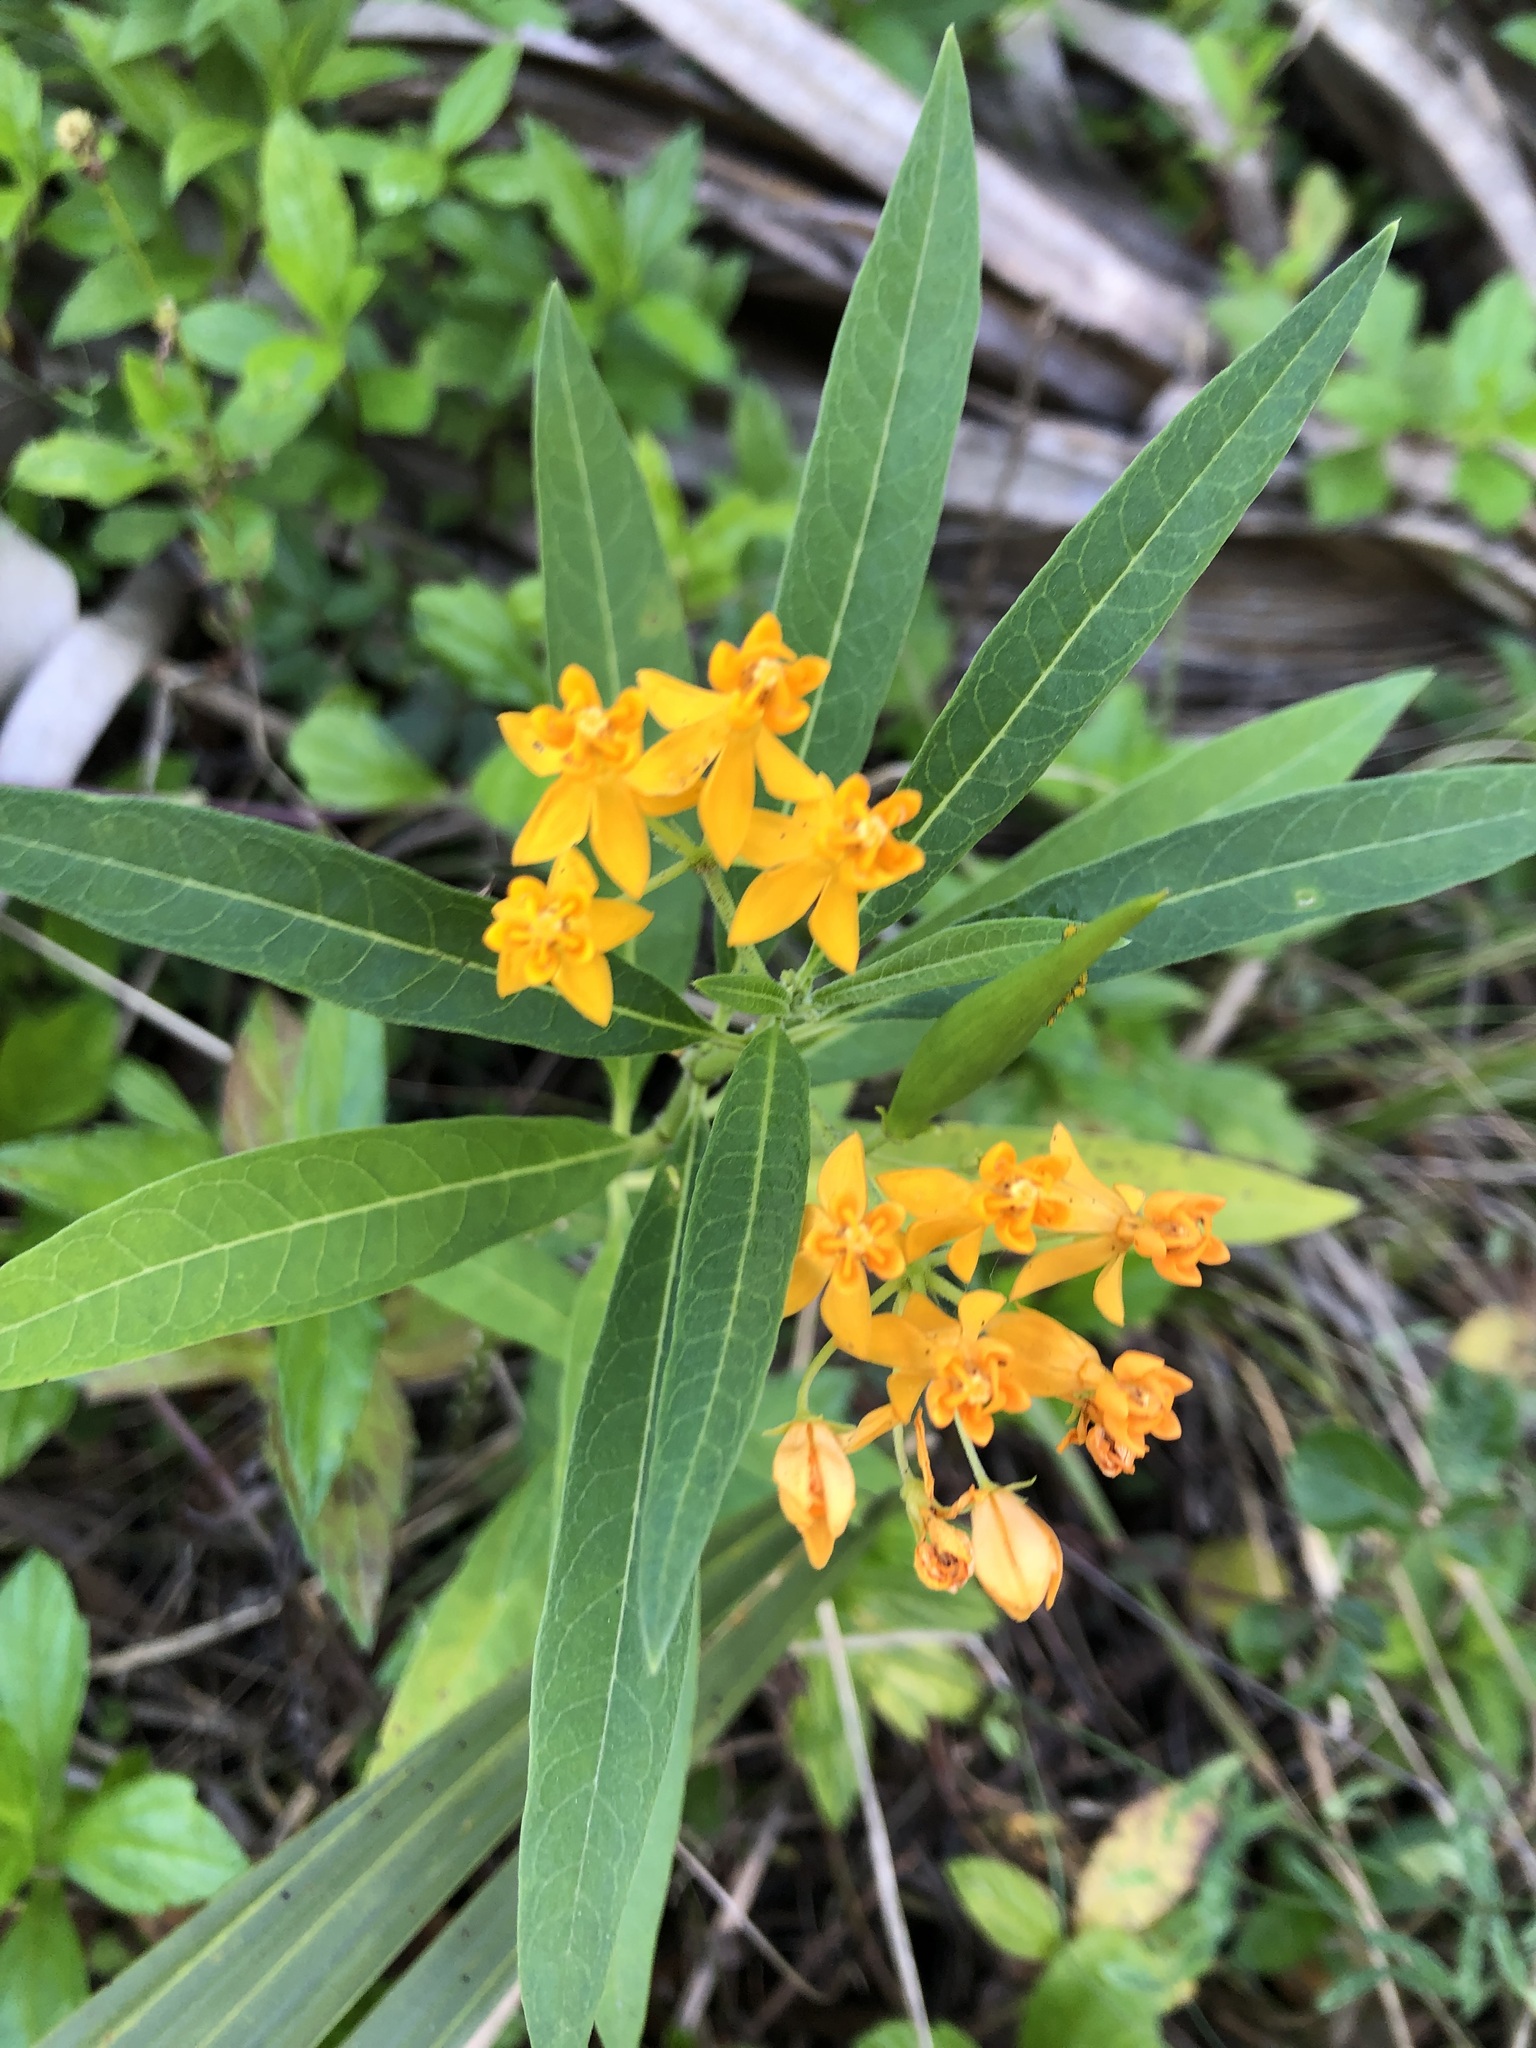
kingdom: Plantae
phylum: Tracheophyta
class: Magnoliopsida
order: Gentianales
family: Apocynaceae
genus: Asclepias
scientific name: Asclepias curassavica
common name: Bloodflower
